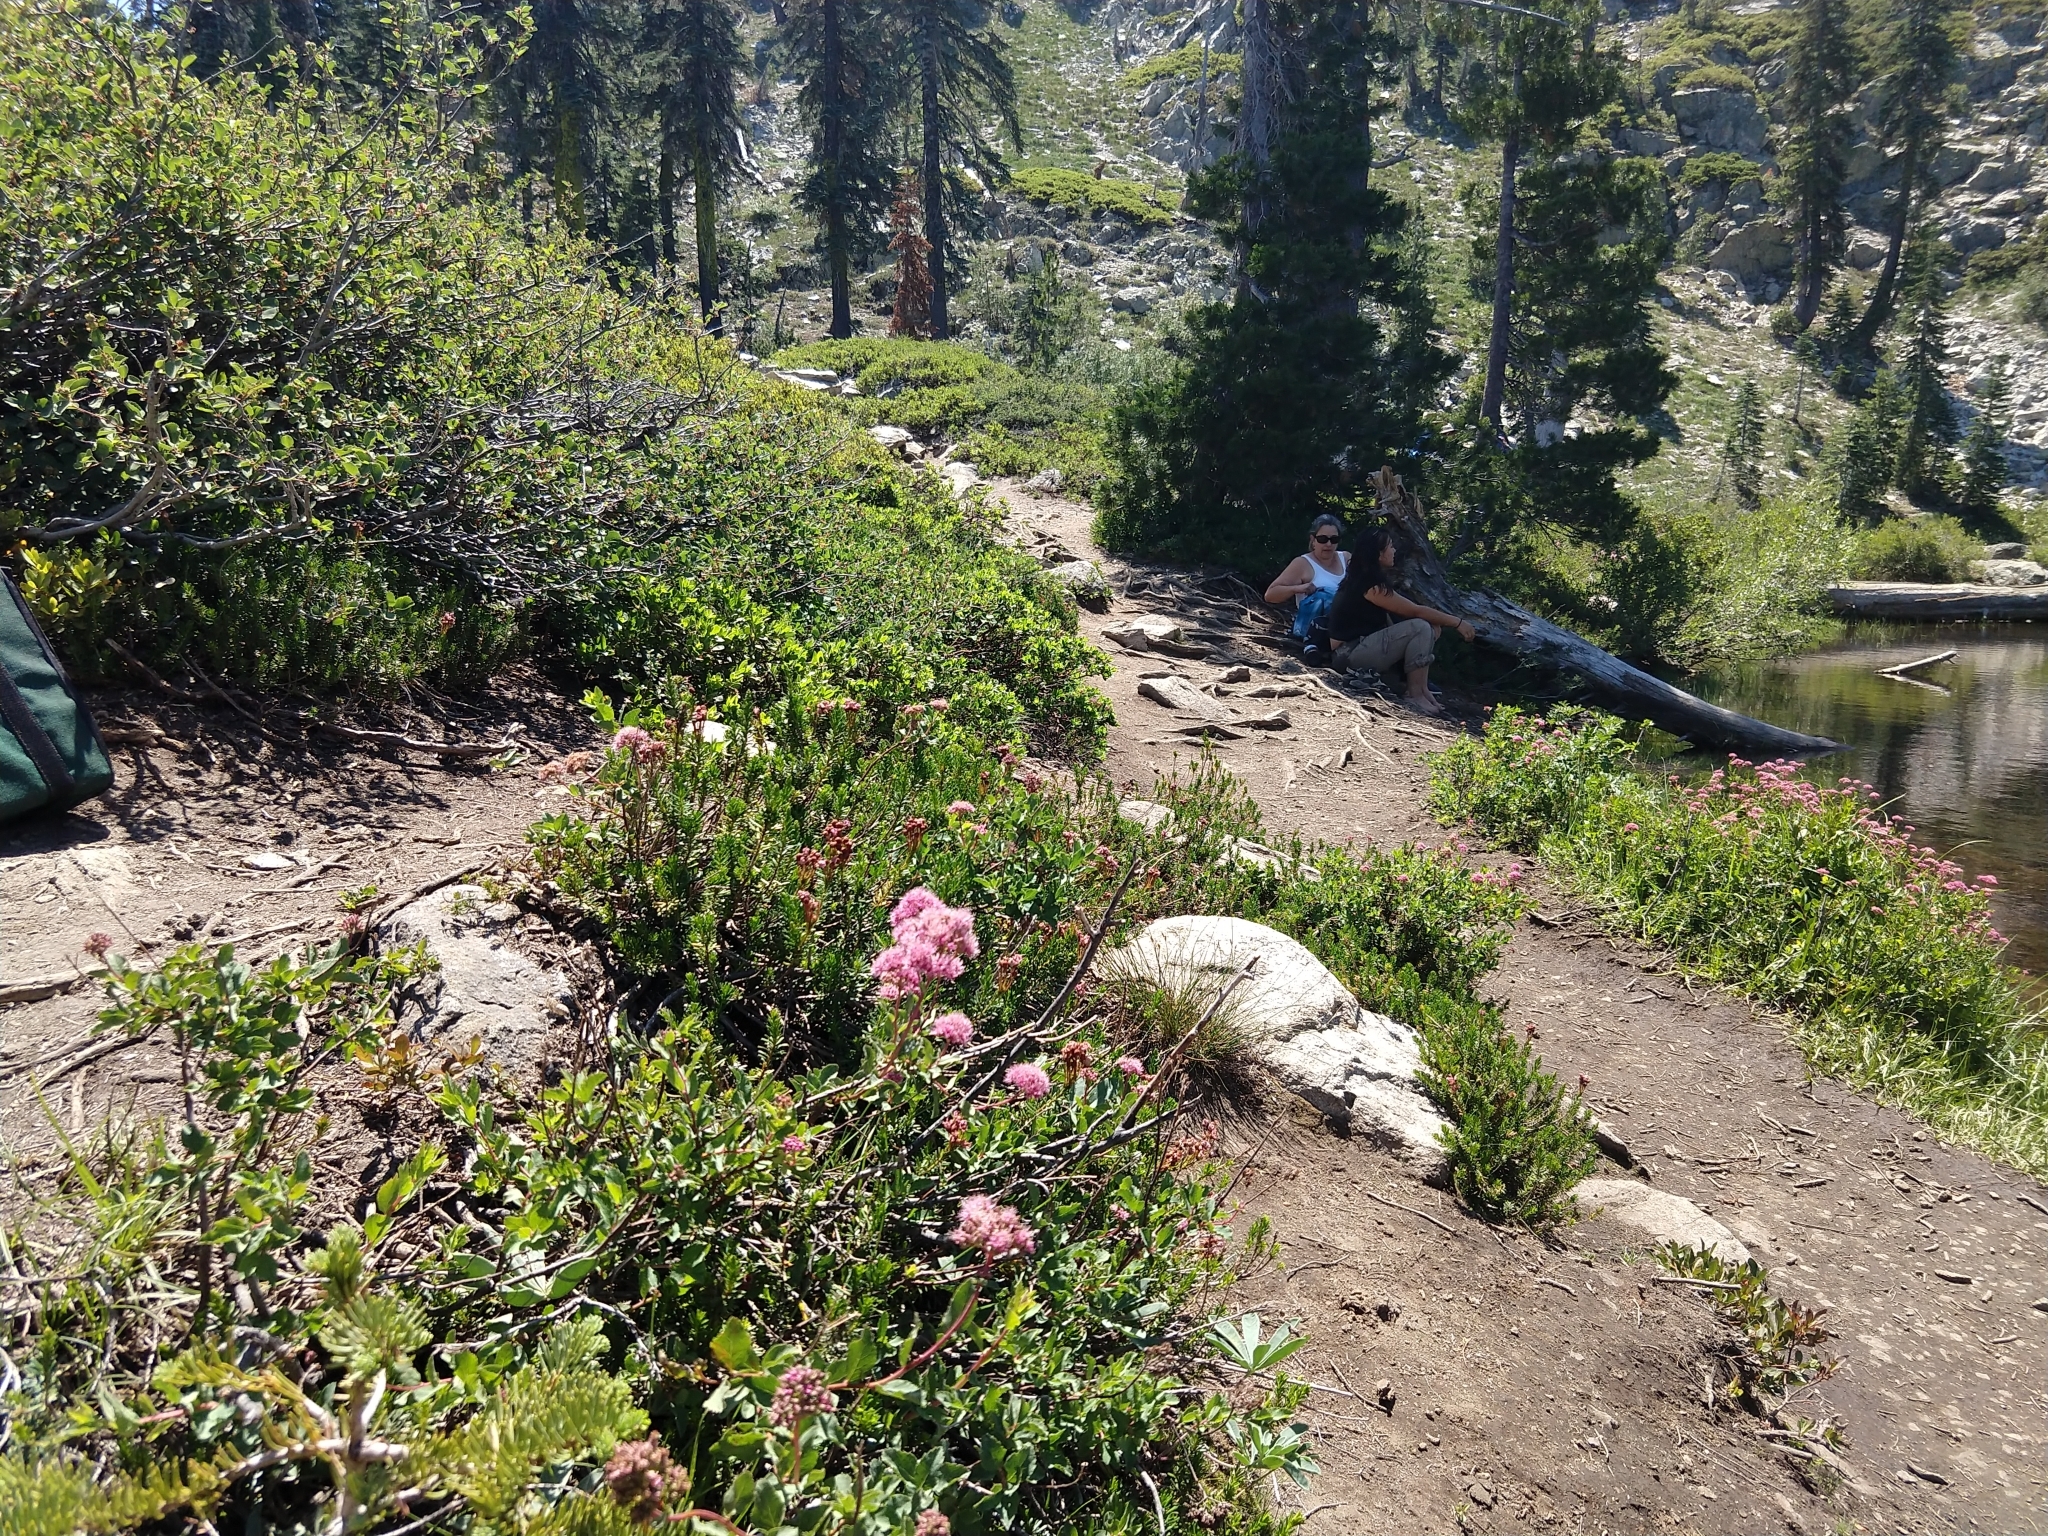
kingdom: Plantae
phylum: Tracheophyta
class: Magnoliopsida
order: Ericales
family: Ericaceae
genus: Phyllodoce
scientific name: Phyllodoce empetriformis
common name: Pink mountain heather
